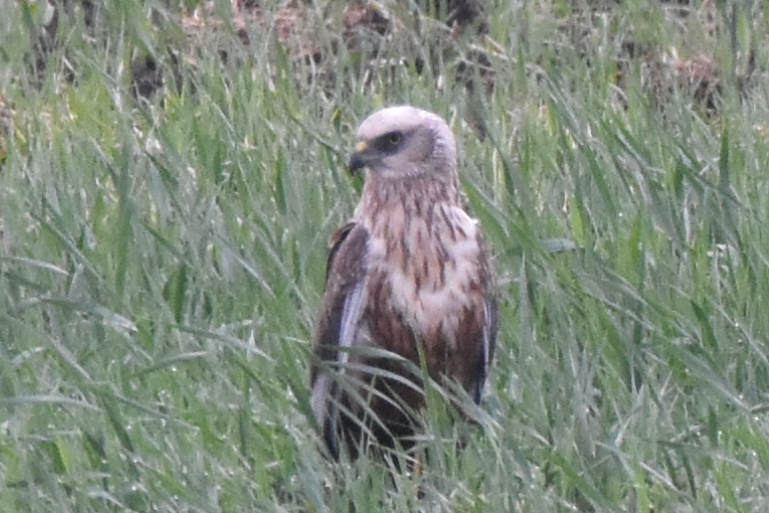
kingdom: Animalia
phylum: Chordata
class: Aves
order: Accipitriformes
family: Accipitridae
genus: Circus
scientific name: Circus aeruginosus
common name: Western marsh harrier
